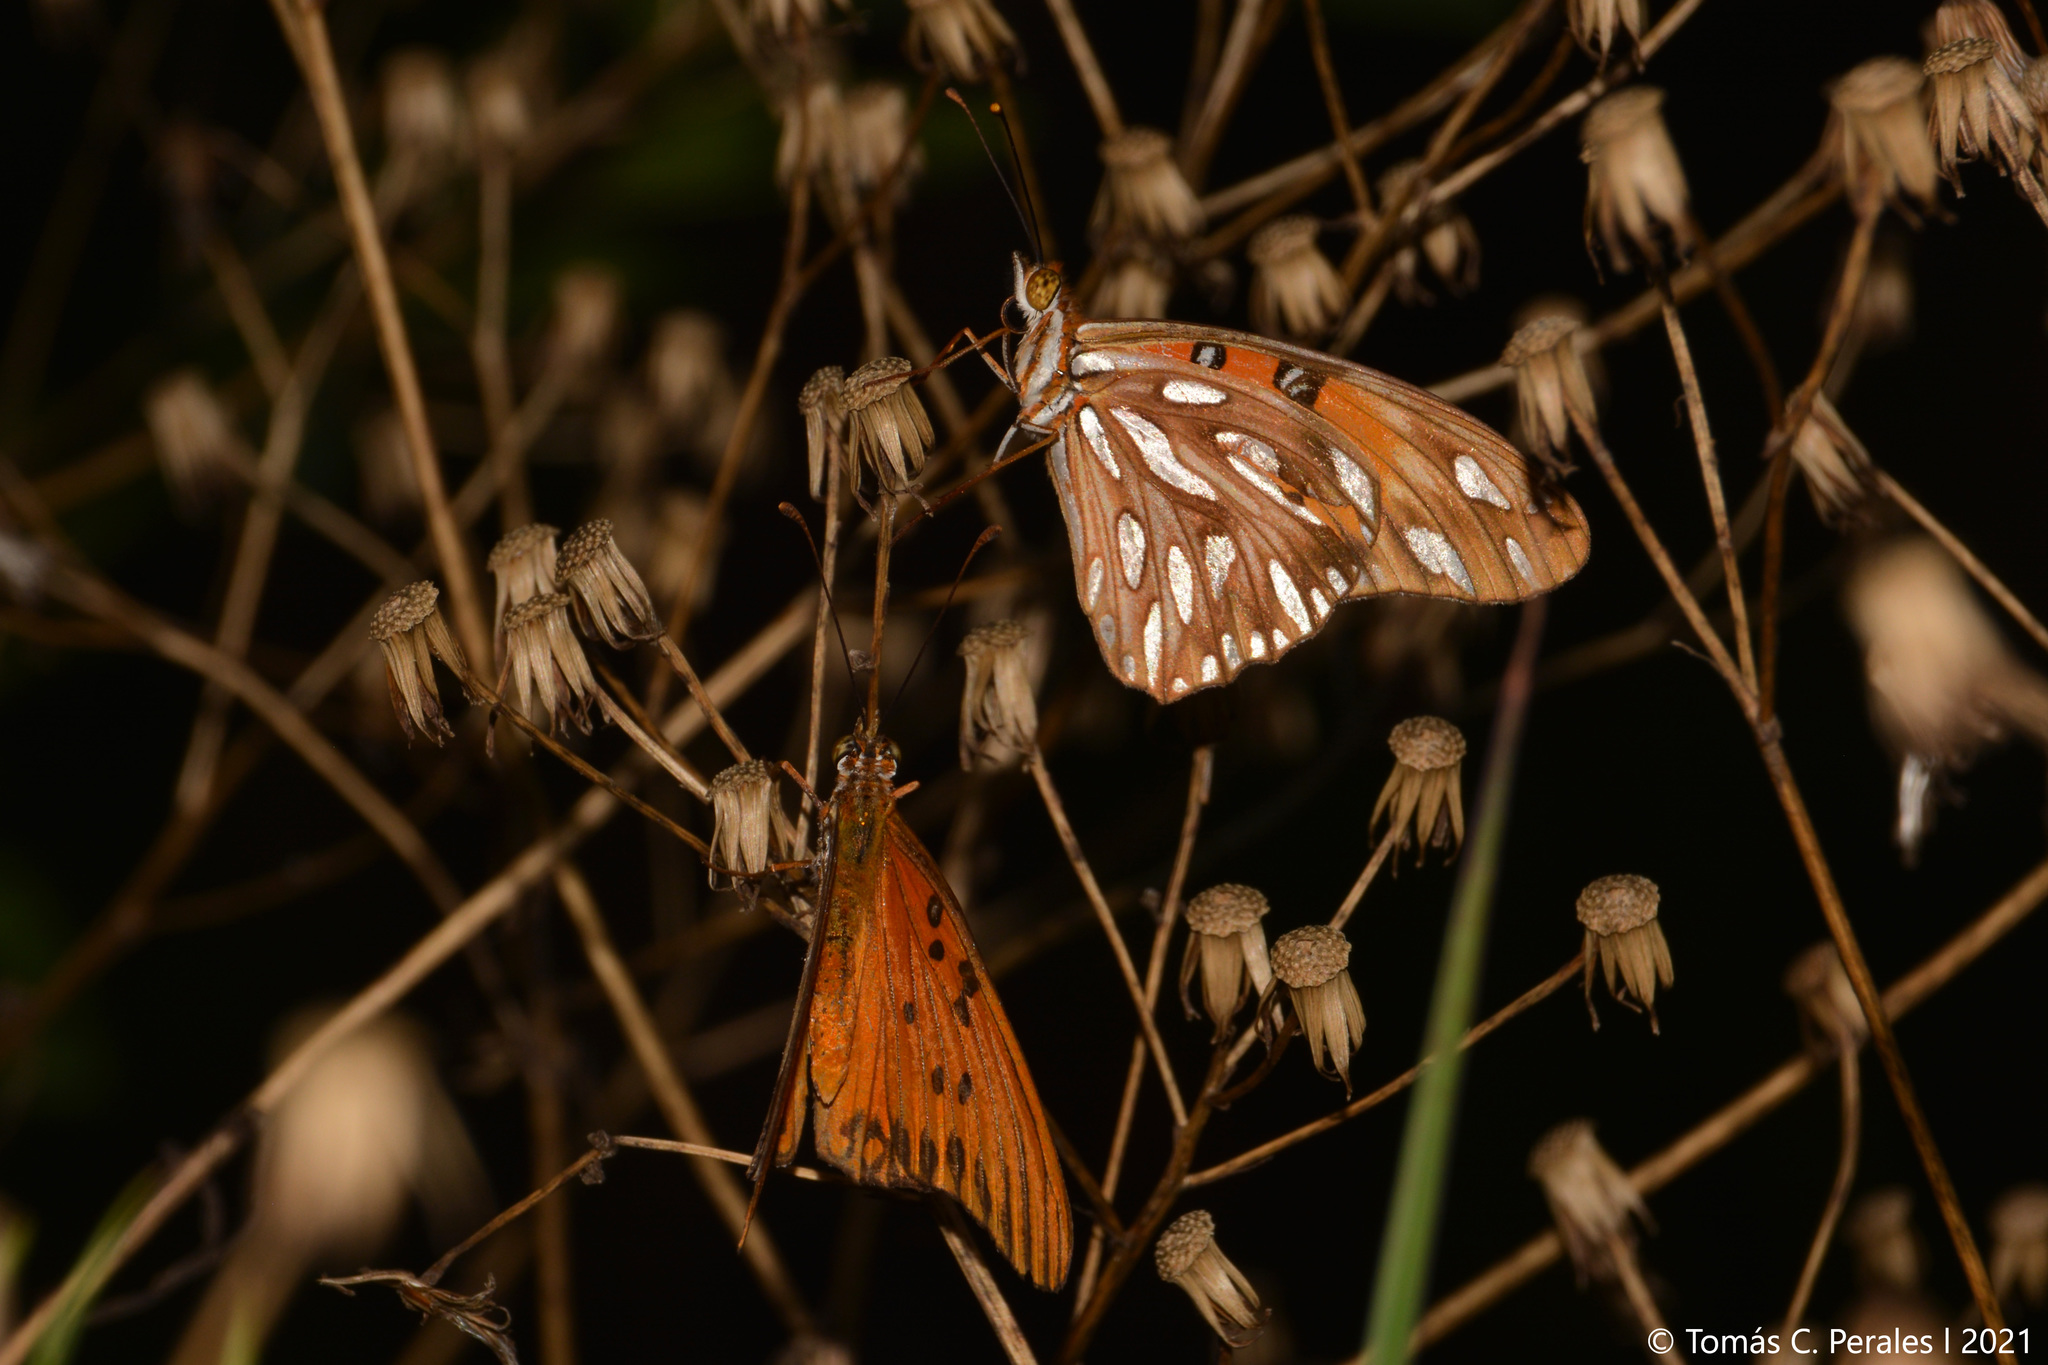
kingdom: Animalia
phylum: Arthropoda
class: Insecta
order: Lepidoptera
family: Nymphalidae
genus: Dione
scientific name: Dione vanillae
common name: Gulf fritillary
